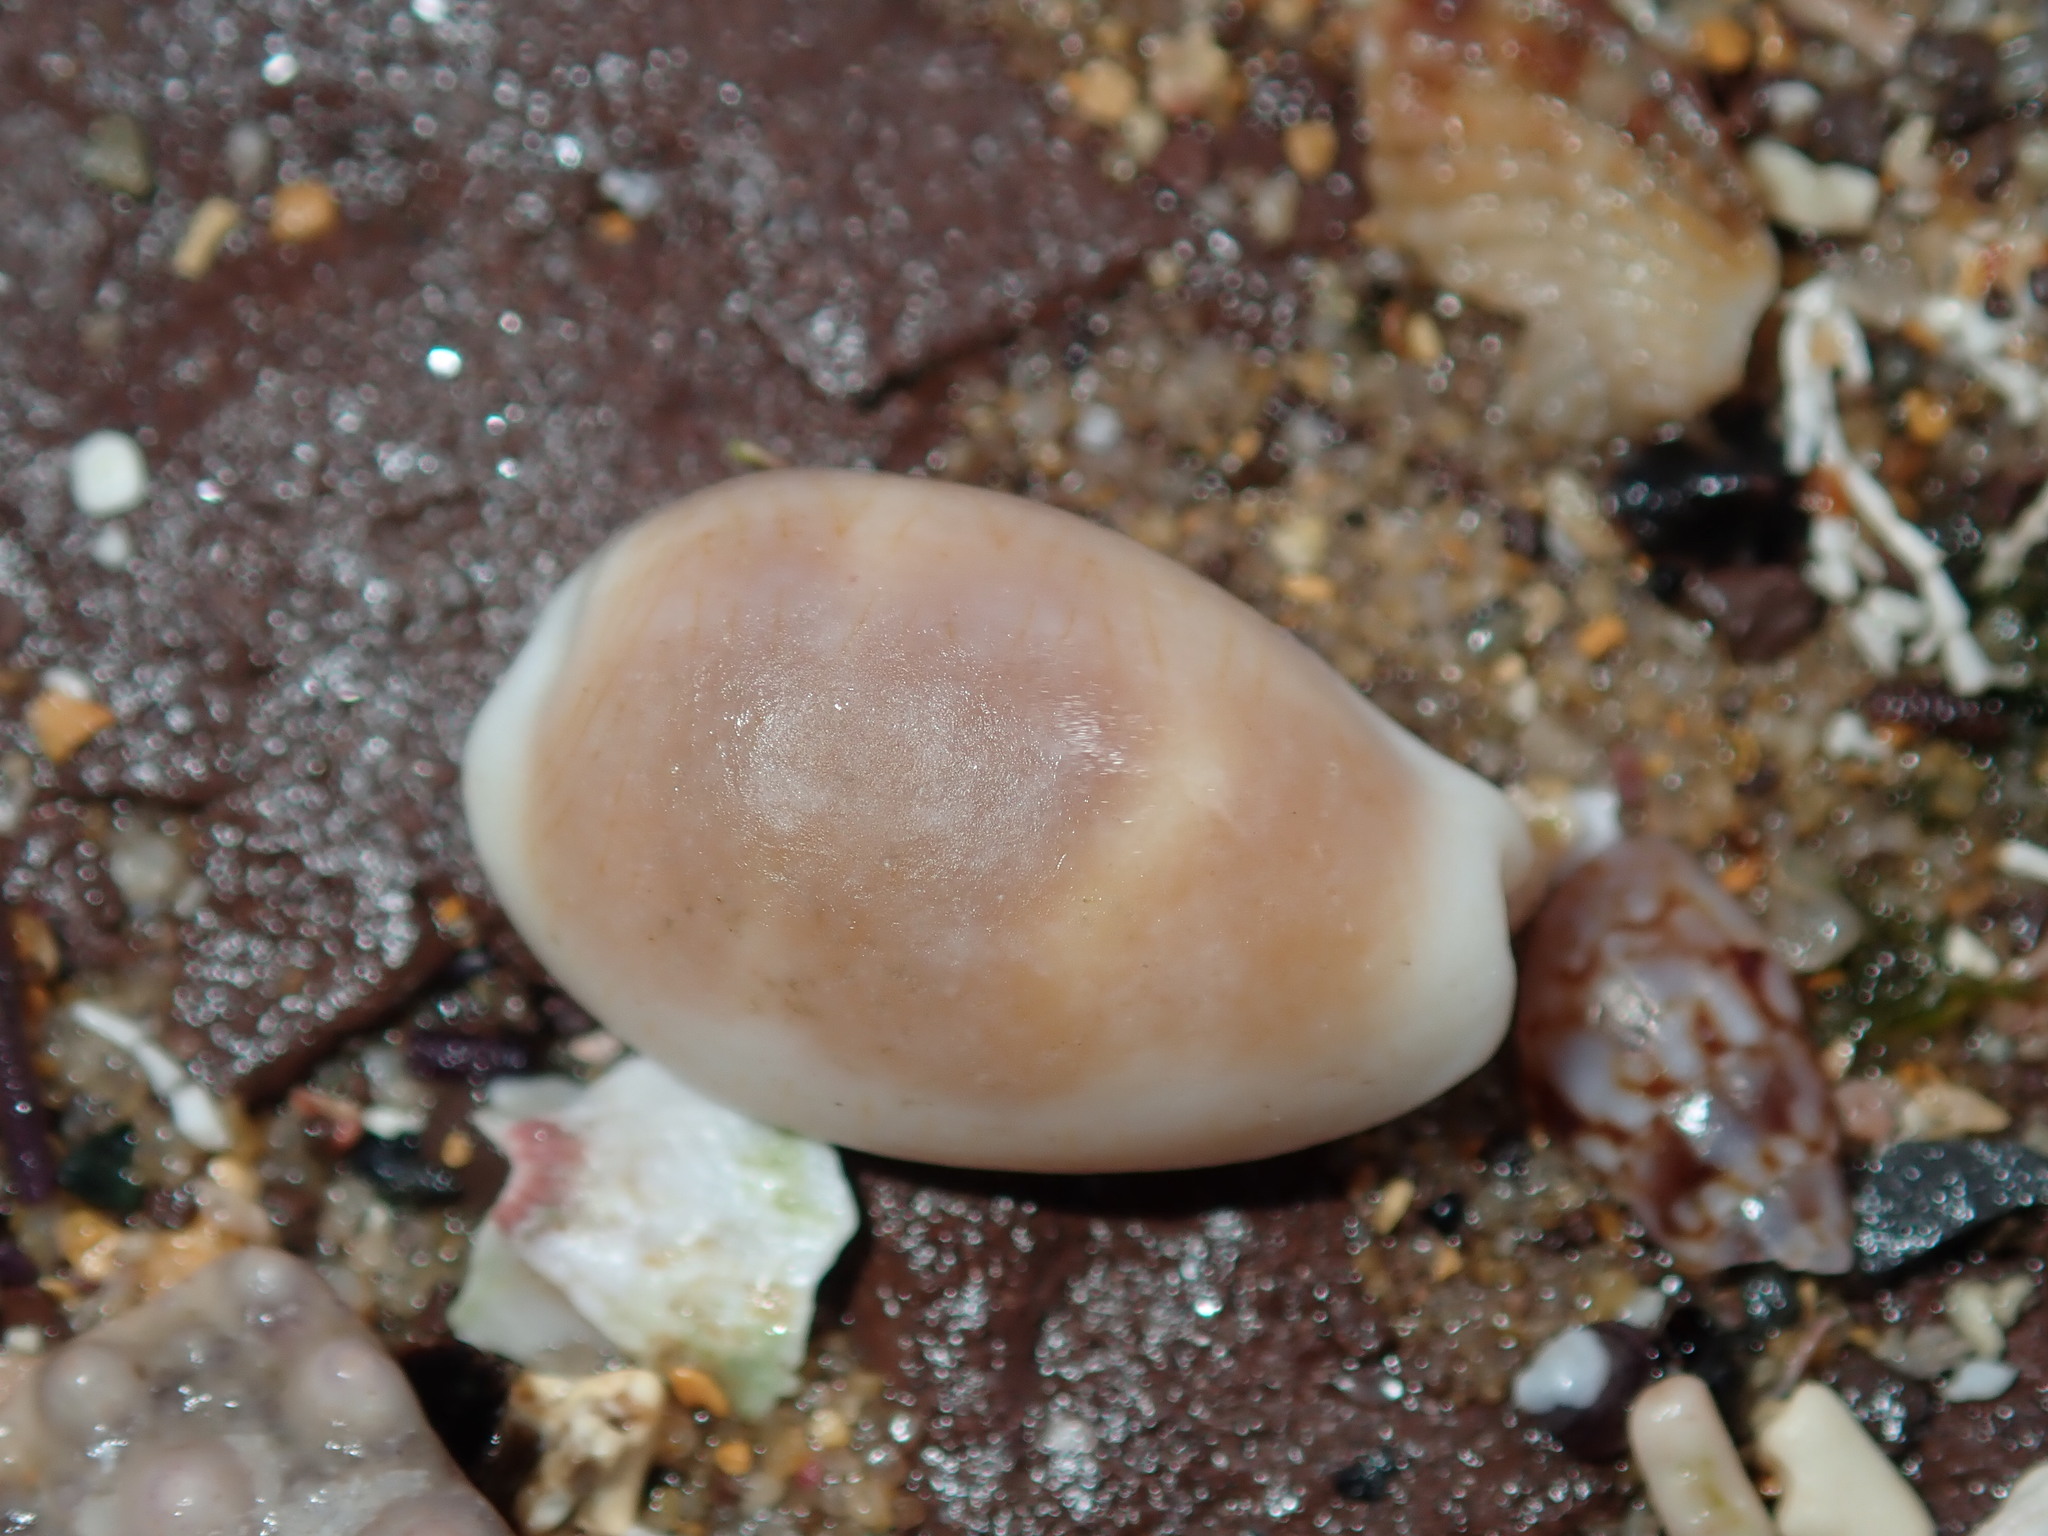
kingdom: Animalia
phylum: Mollusca
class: Gastropoda
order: Littorinimorpha
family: Cypraeidae
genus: Palmadusta
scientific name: Palmadusta clandestina
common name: Cowrie
